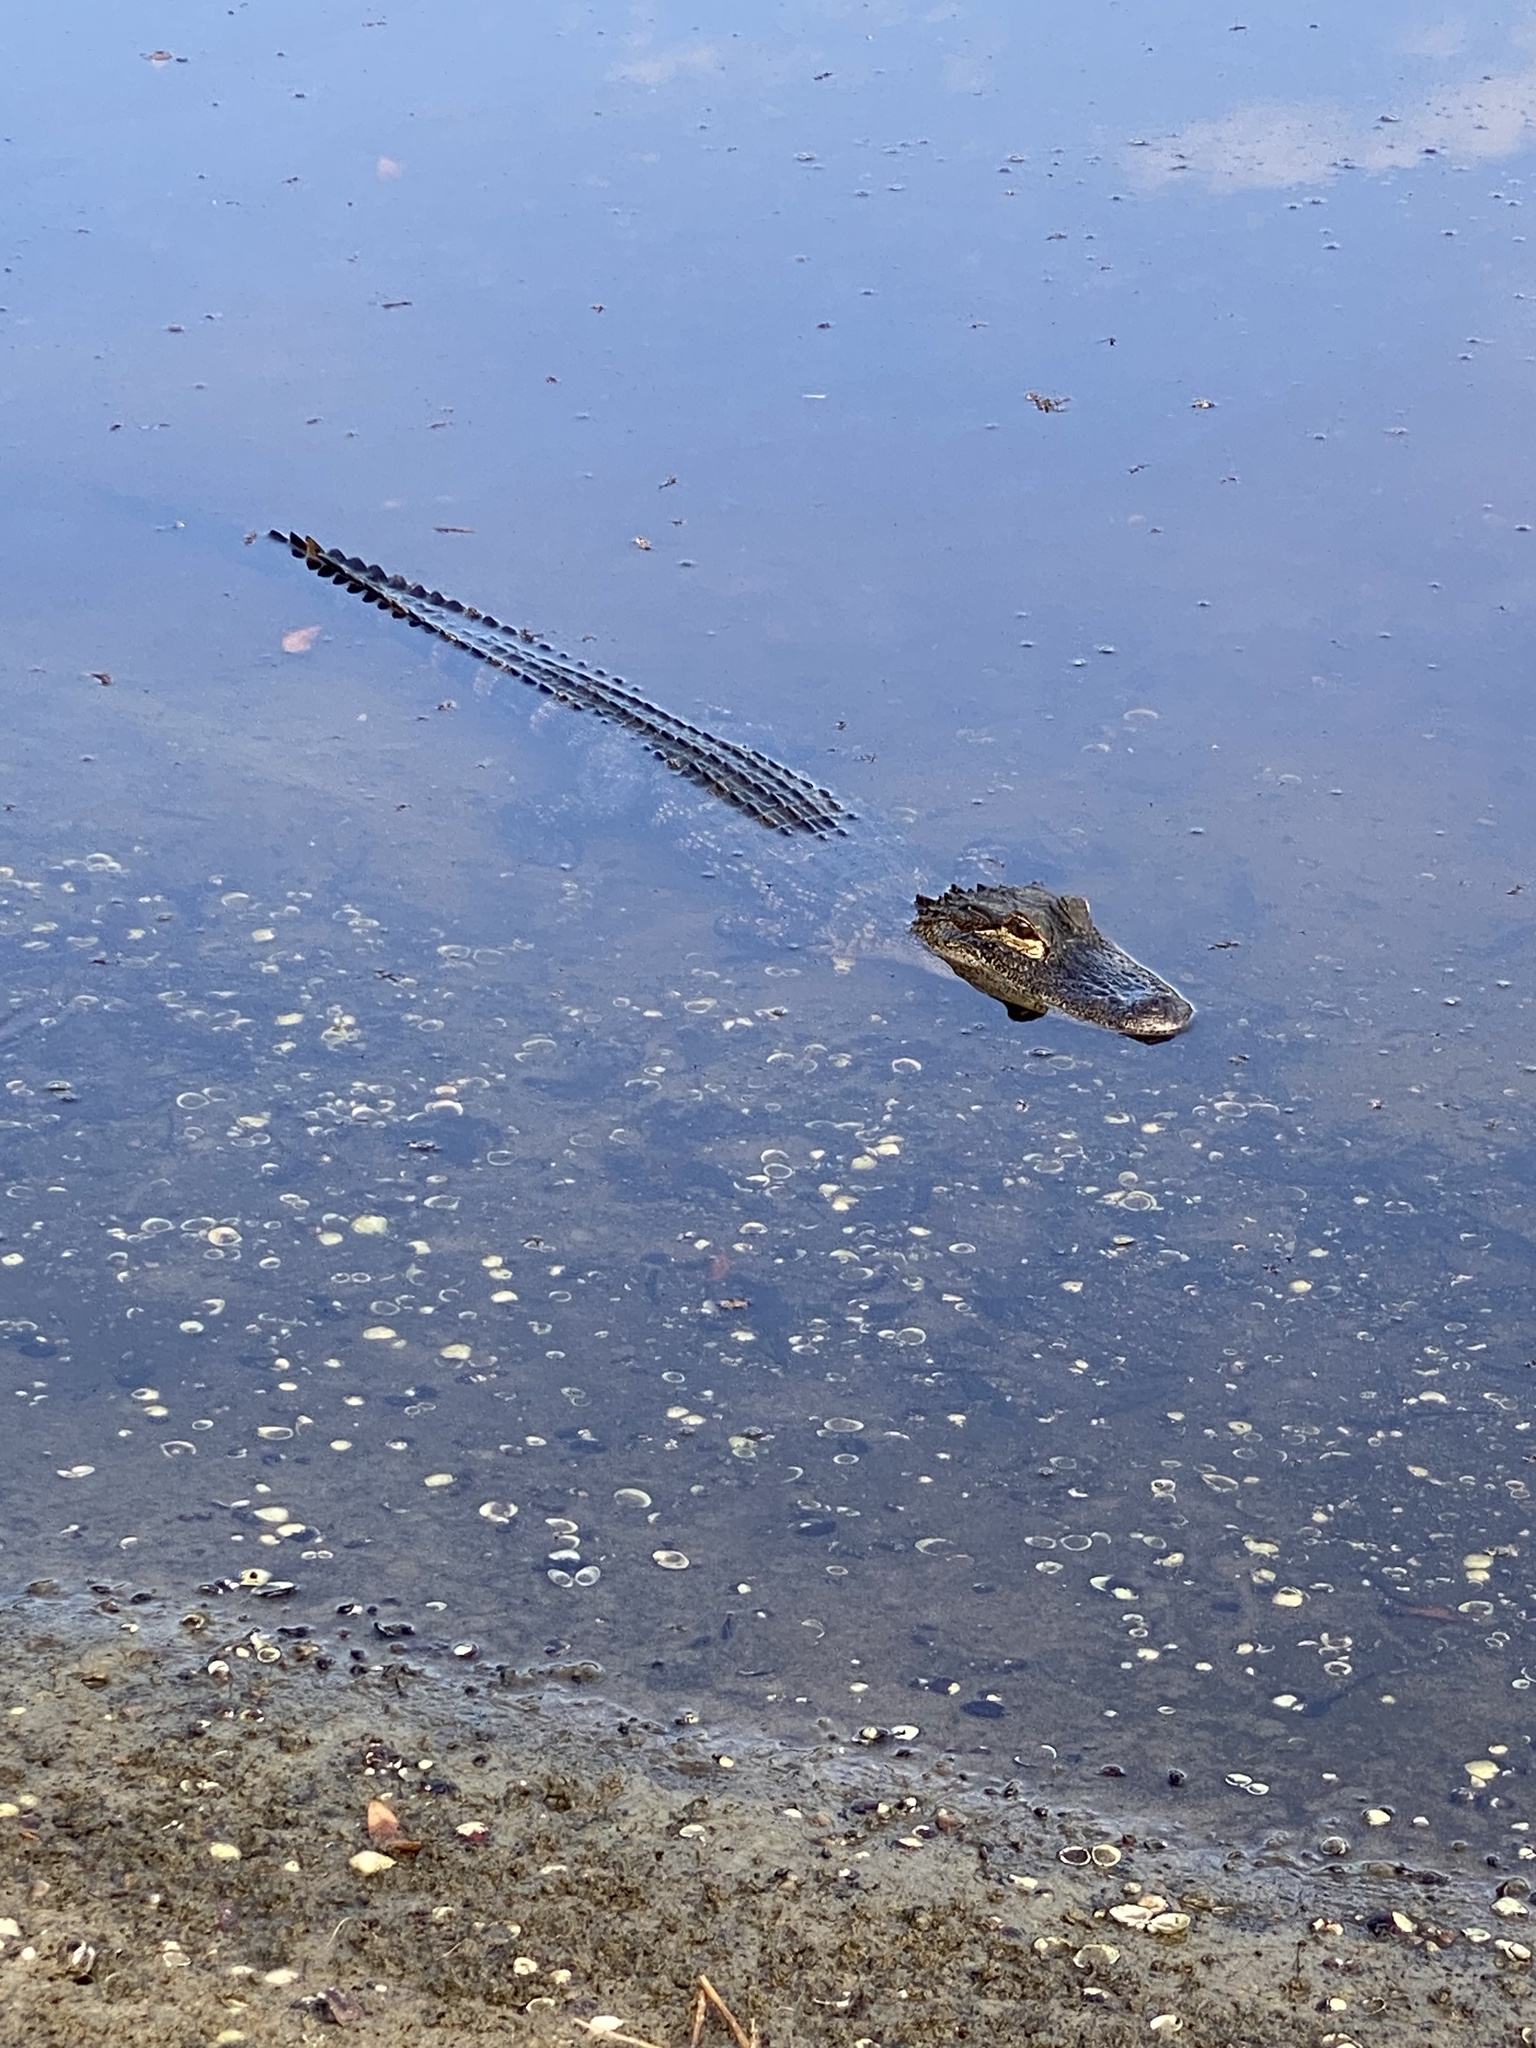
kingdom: Animalia
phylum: Chordata
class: Crocodylia
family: Alligatoridae
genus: Alligator
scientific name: Alligator mississippiensis
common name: American alligator
